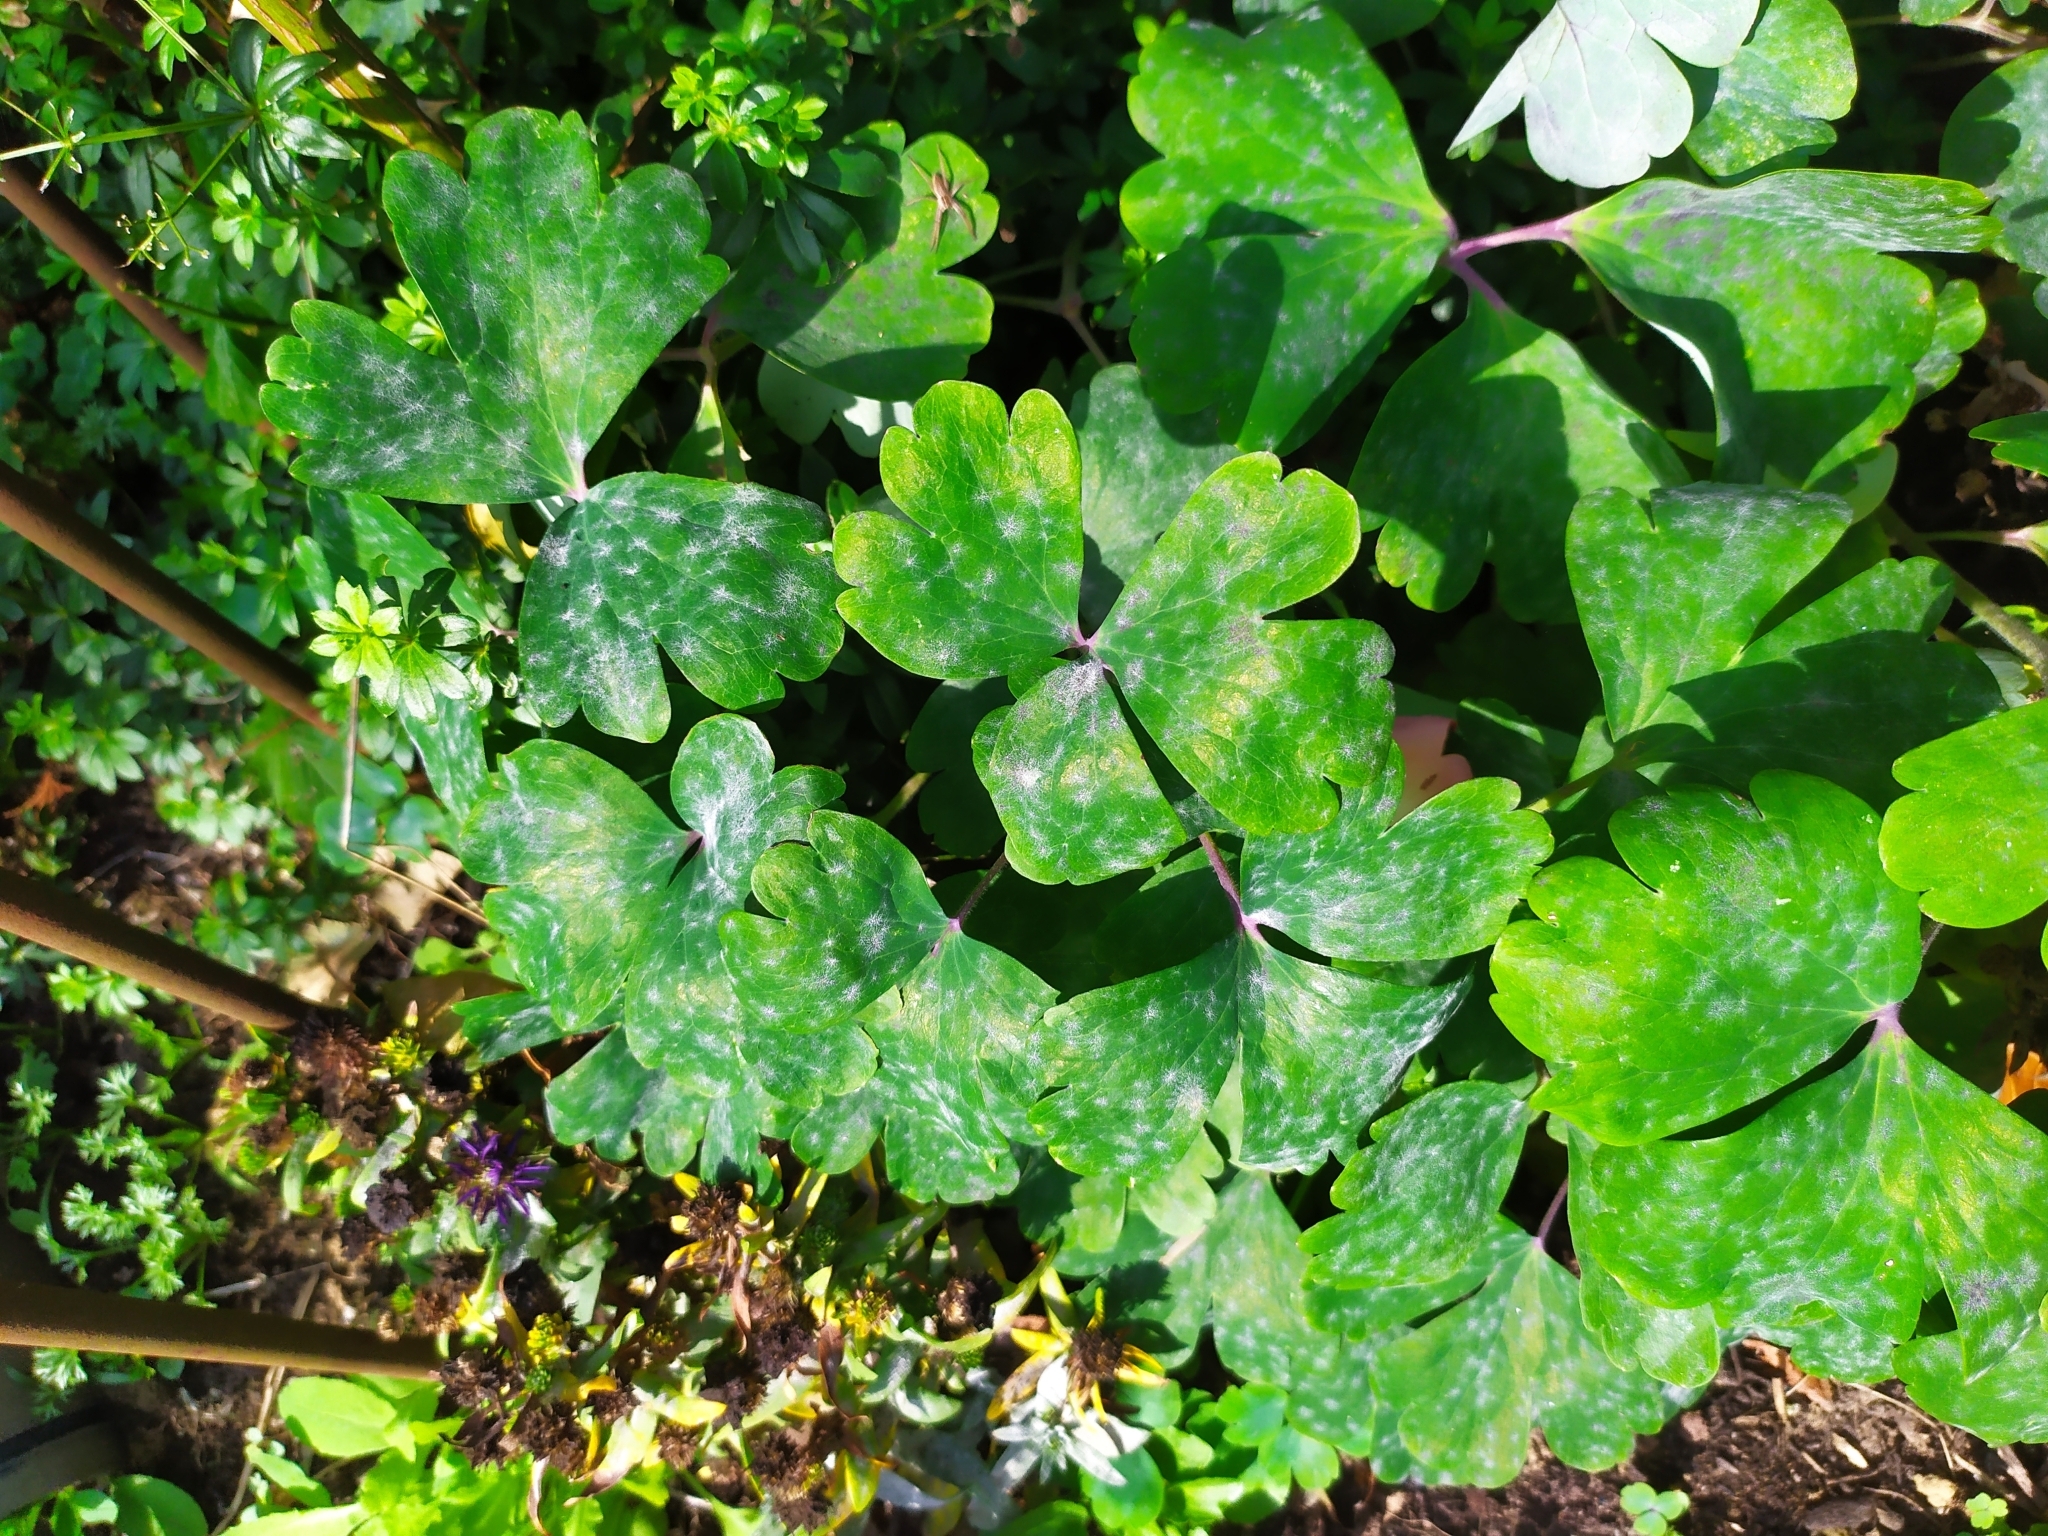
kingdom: Fungi
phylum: Ascomycota
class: Leotiomycetes
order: Helotiales
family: Erysiphaceae
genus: Erysiphe
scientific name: Erysiphe aquilegiae
